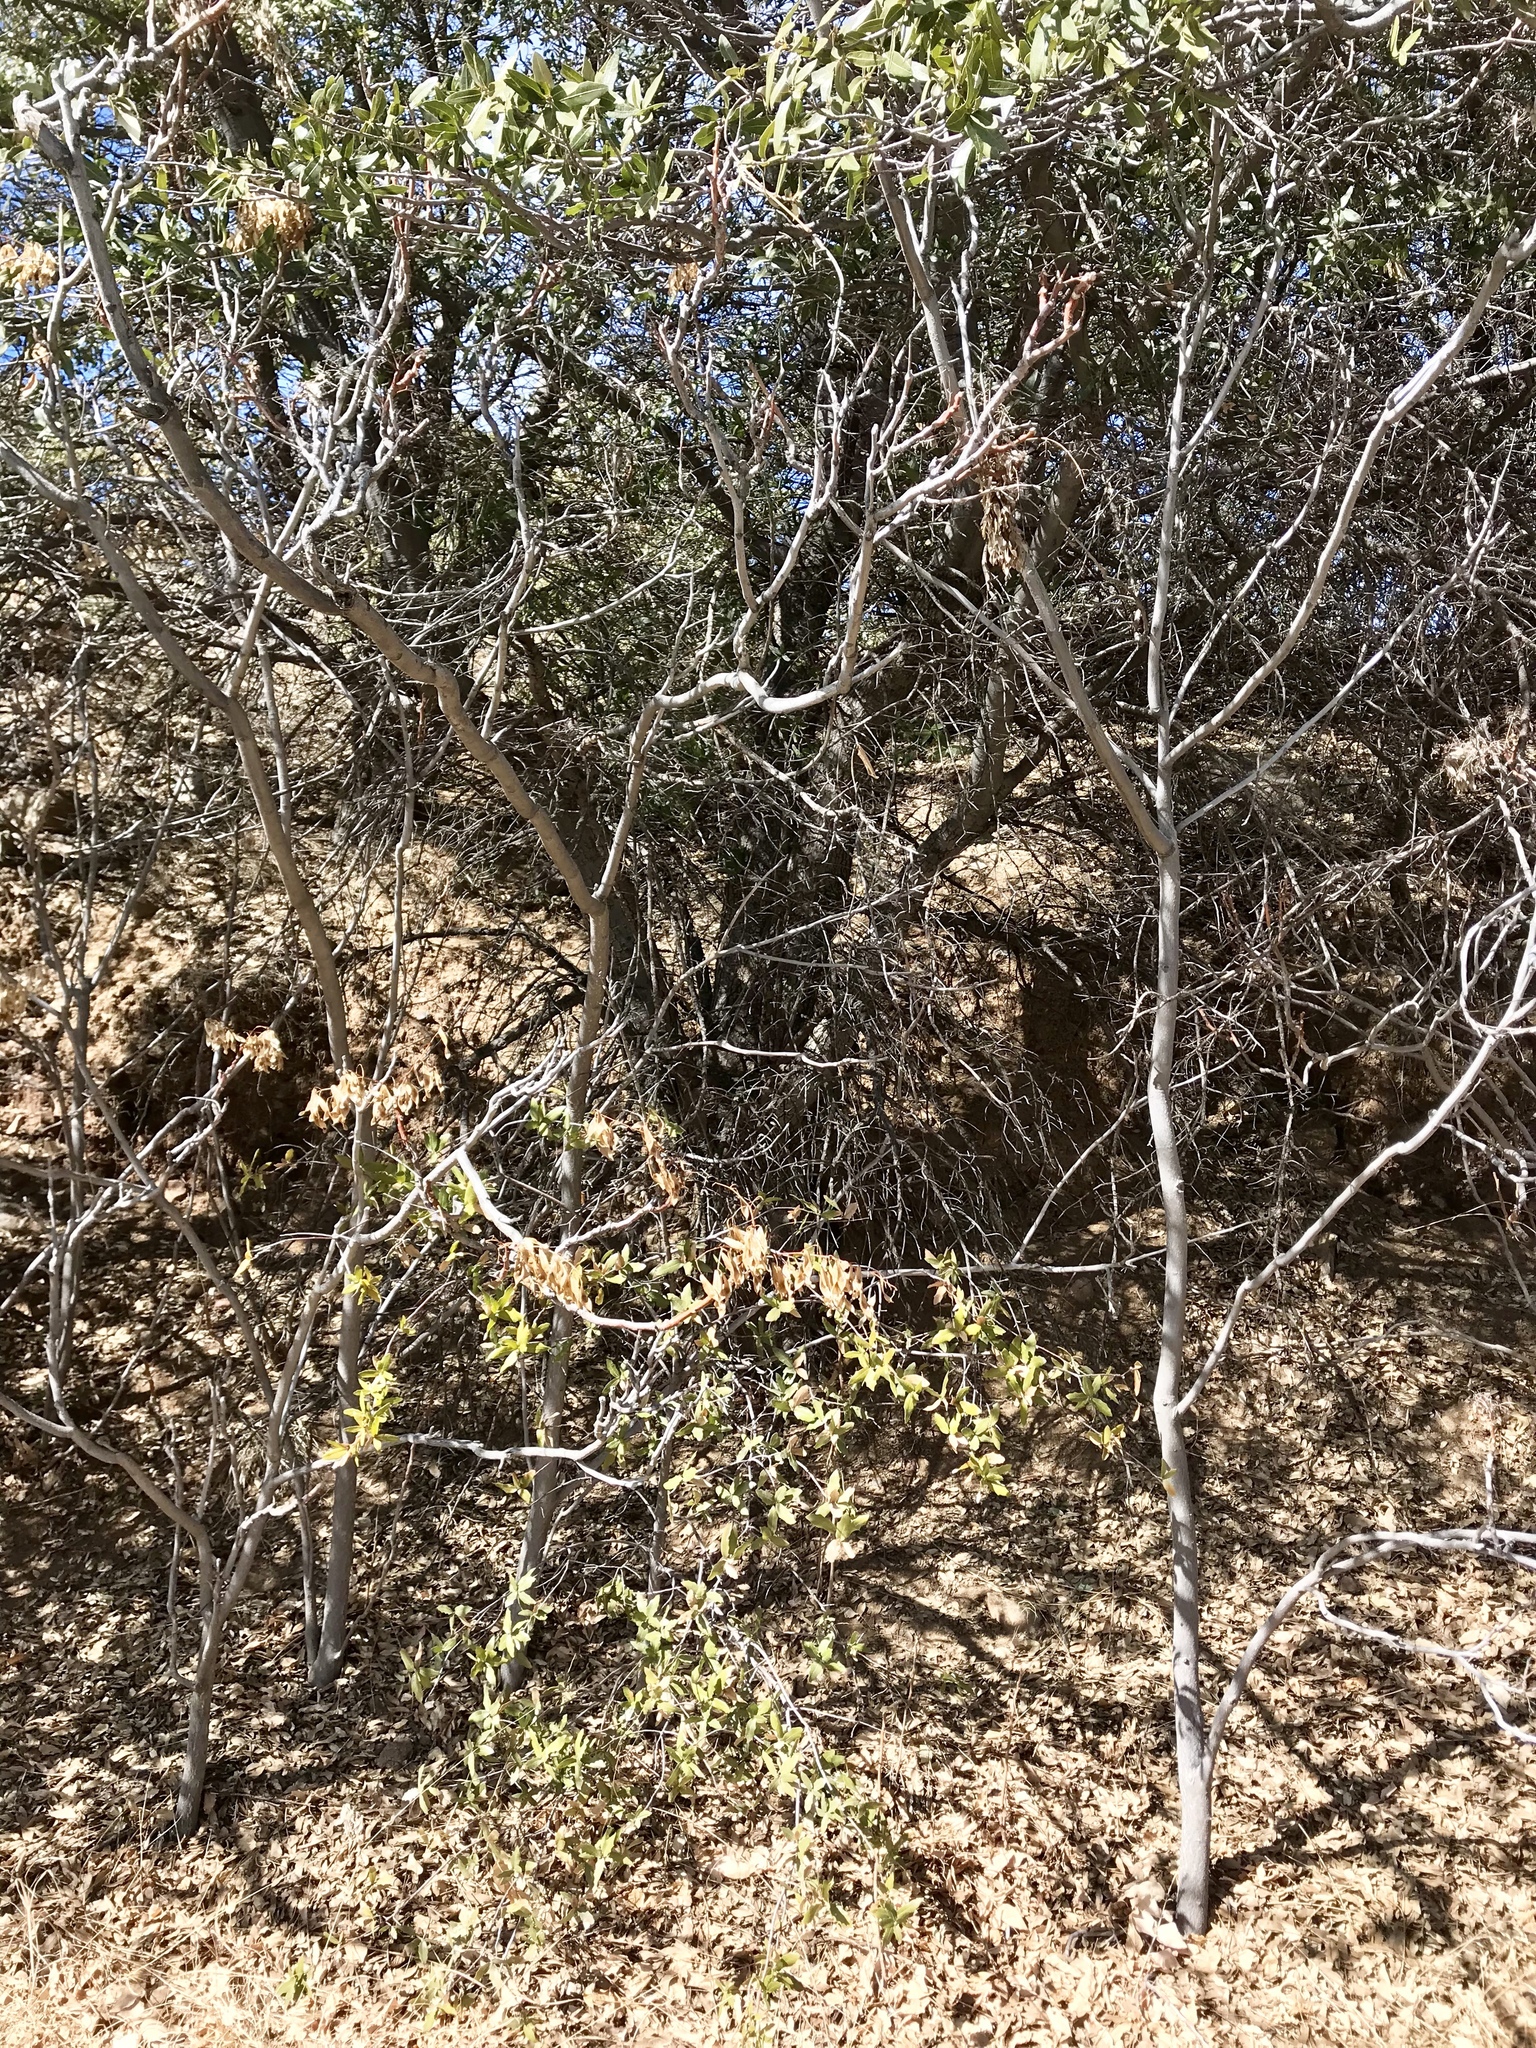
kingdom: Plantae
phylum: Tracheophyta
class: Magnoliopsida
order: Fagales
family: Fagaceae
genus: Quercus
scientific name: Quercus grisea
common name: Gray oak
